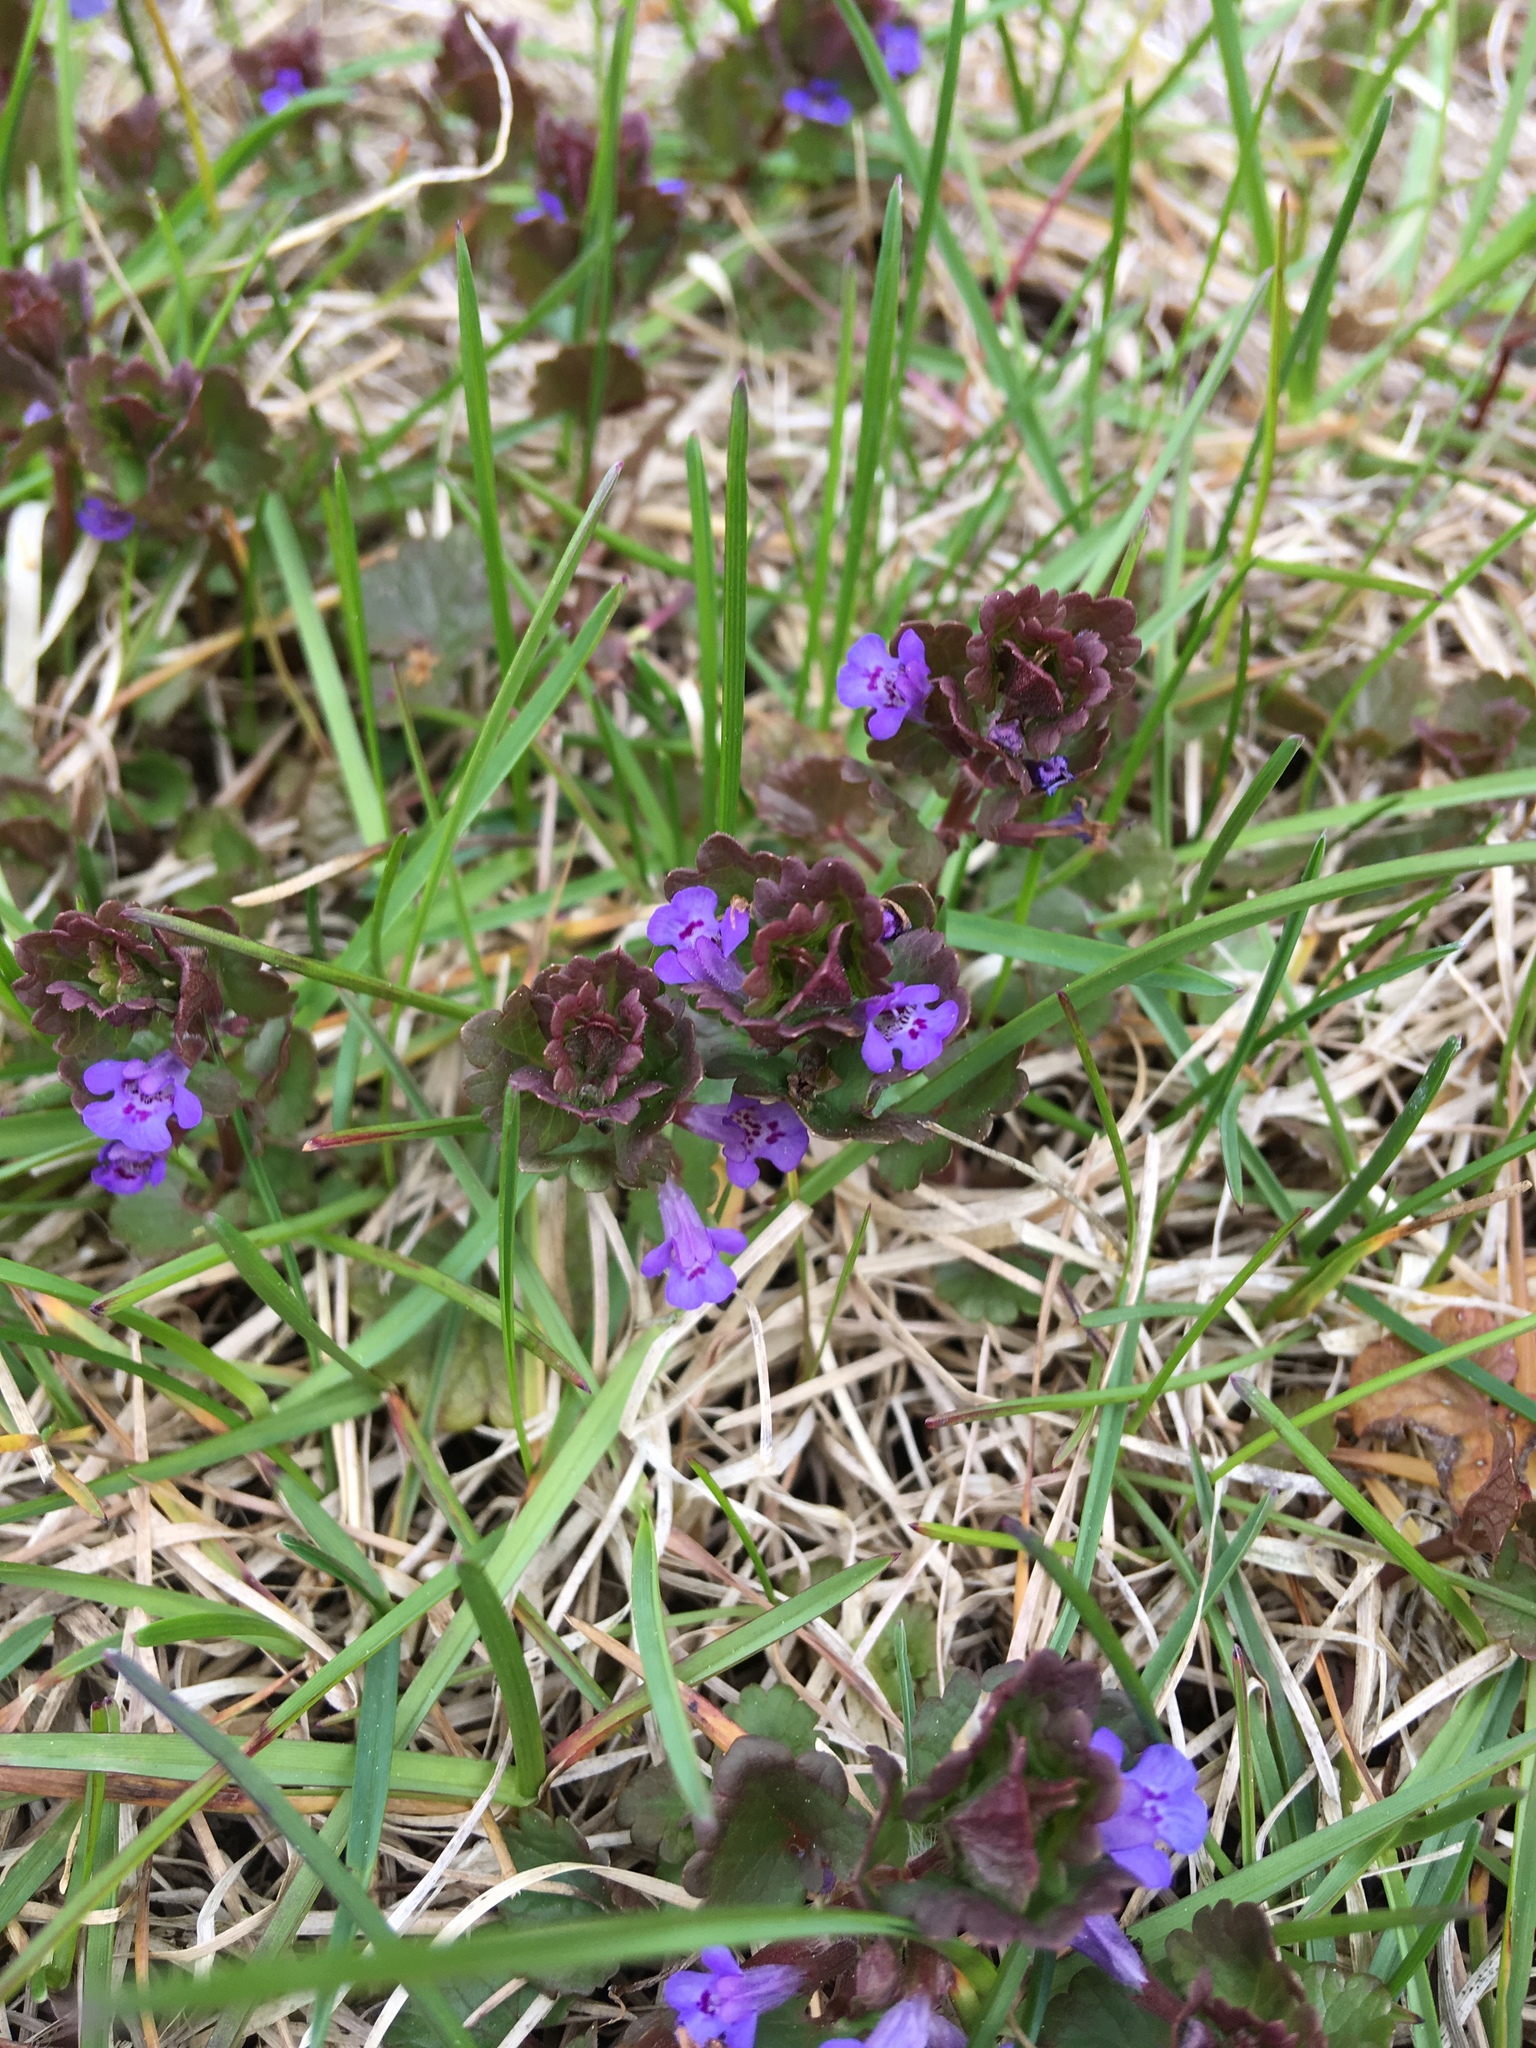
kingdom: Plantae
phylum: Tracheophyta
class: Magnoliopsida
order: Lamiales
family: Lamiaceae
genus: Glechoma
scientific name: Glechoma hederacea
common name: Ground ivy
